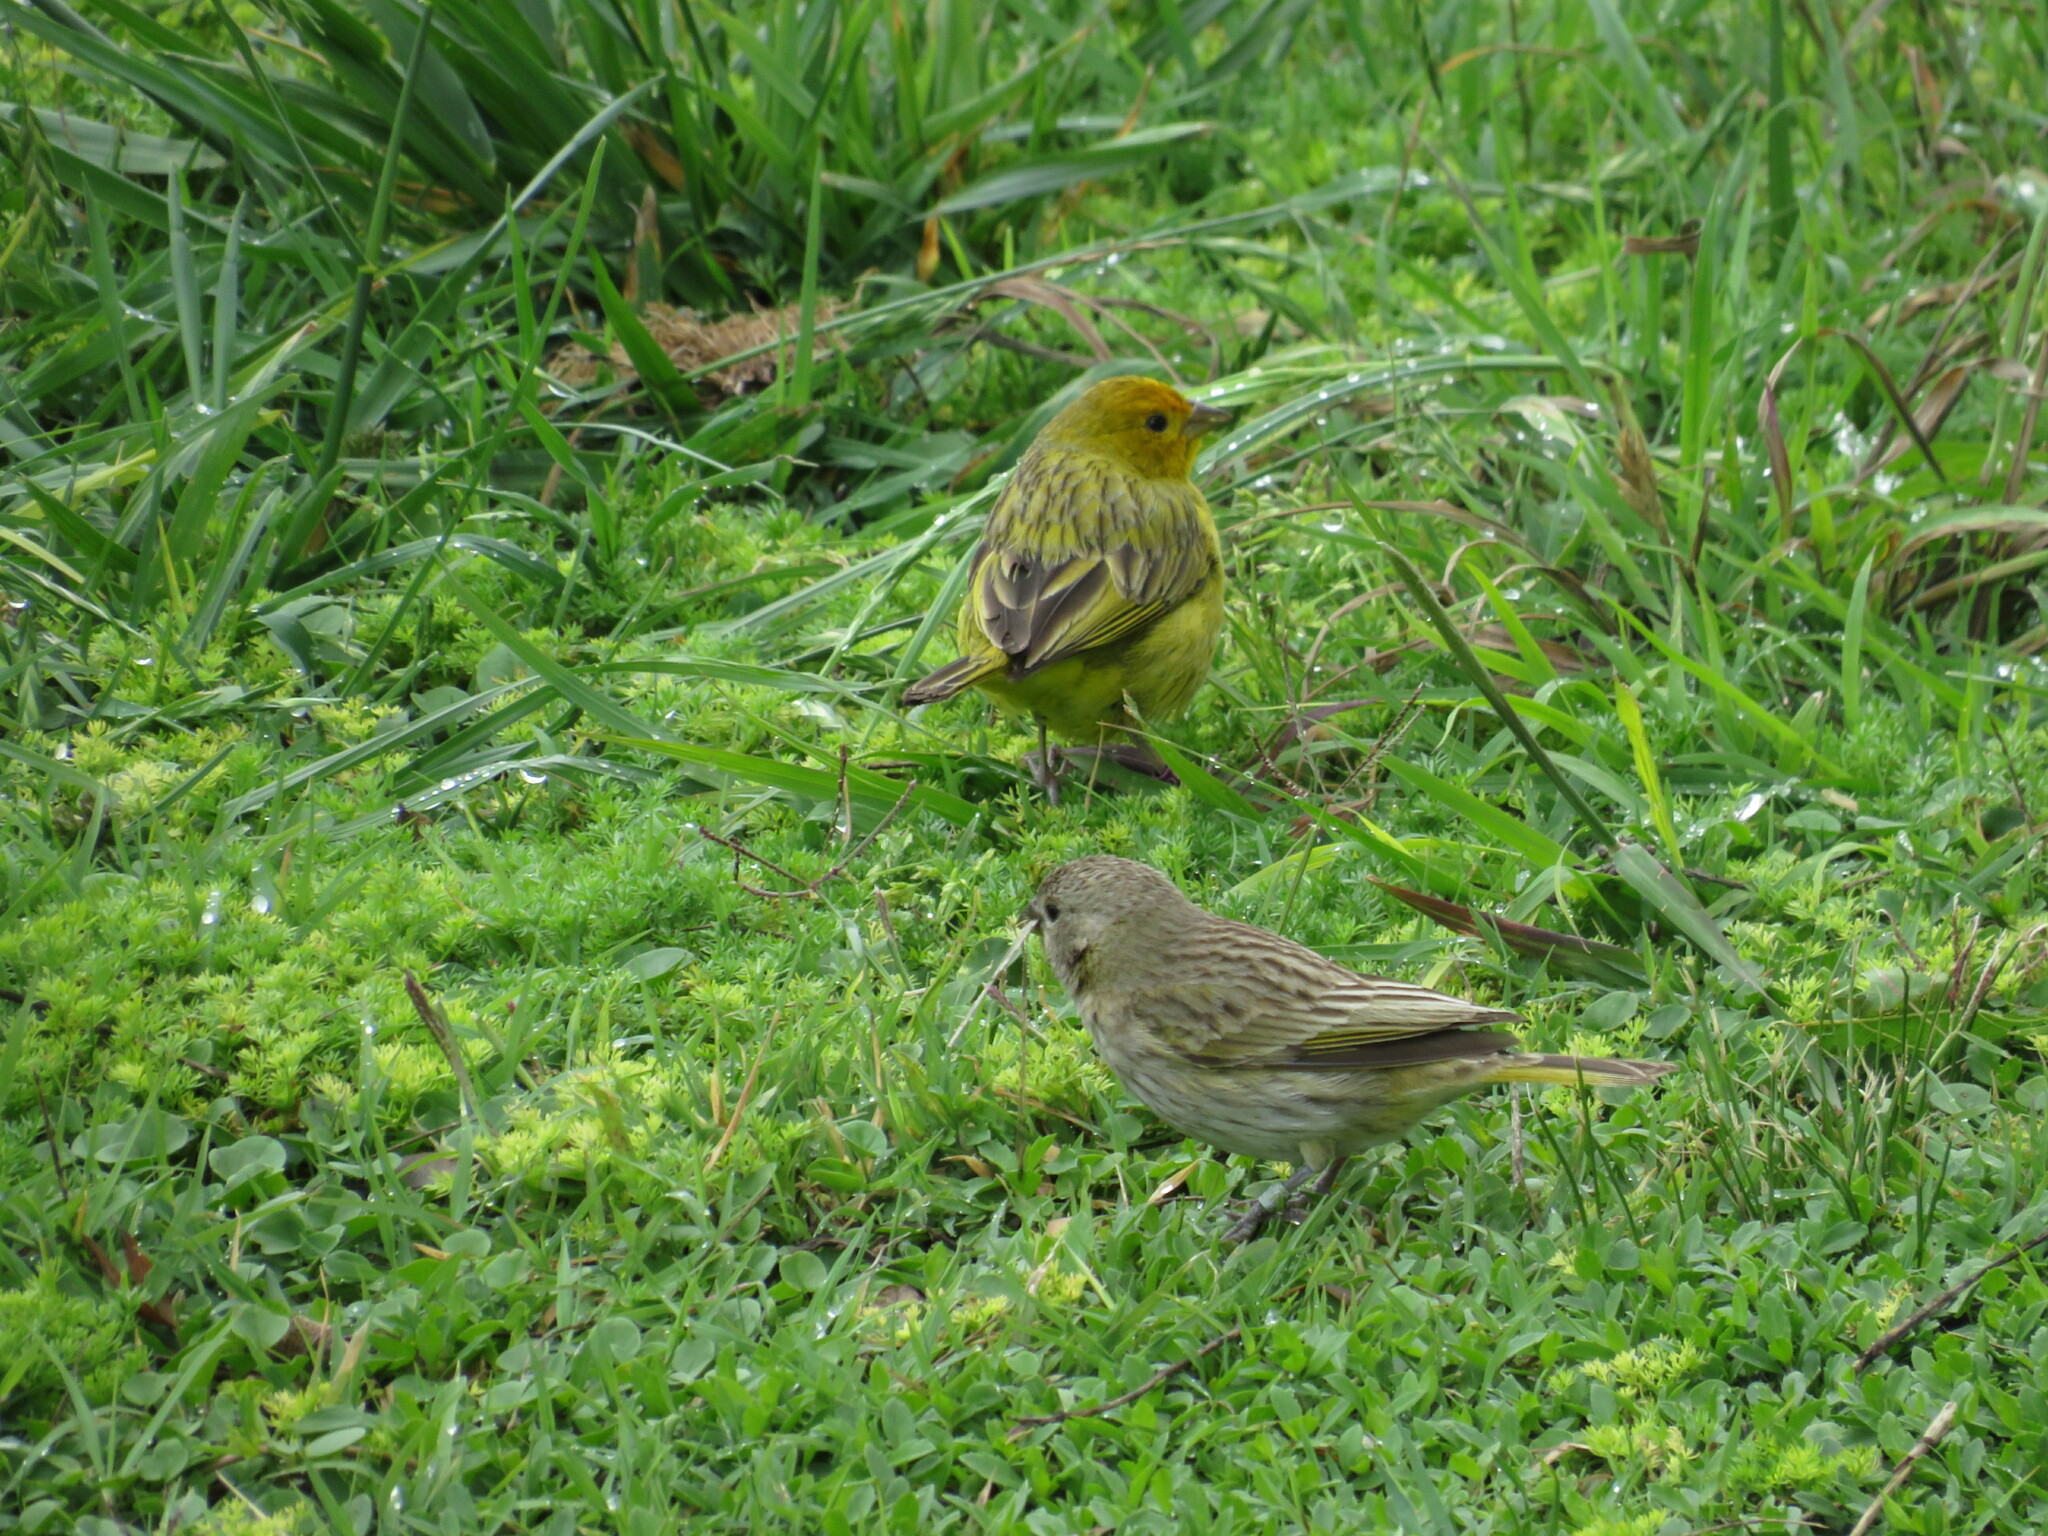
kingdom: Animalia
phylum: Chordata
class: Aves
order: Passeriformes
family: Thraupidae
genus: Sicalis
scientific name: Sicalis flaveola
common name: Saffron finch
